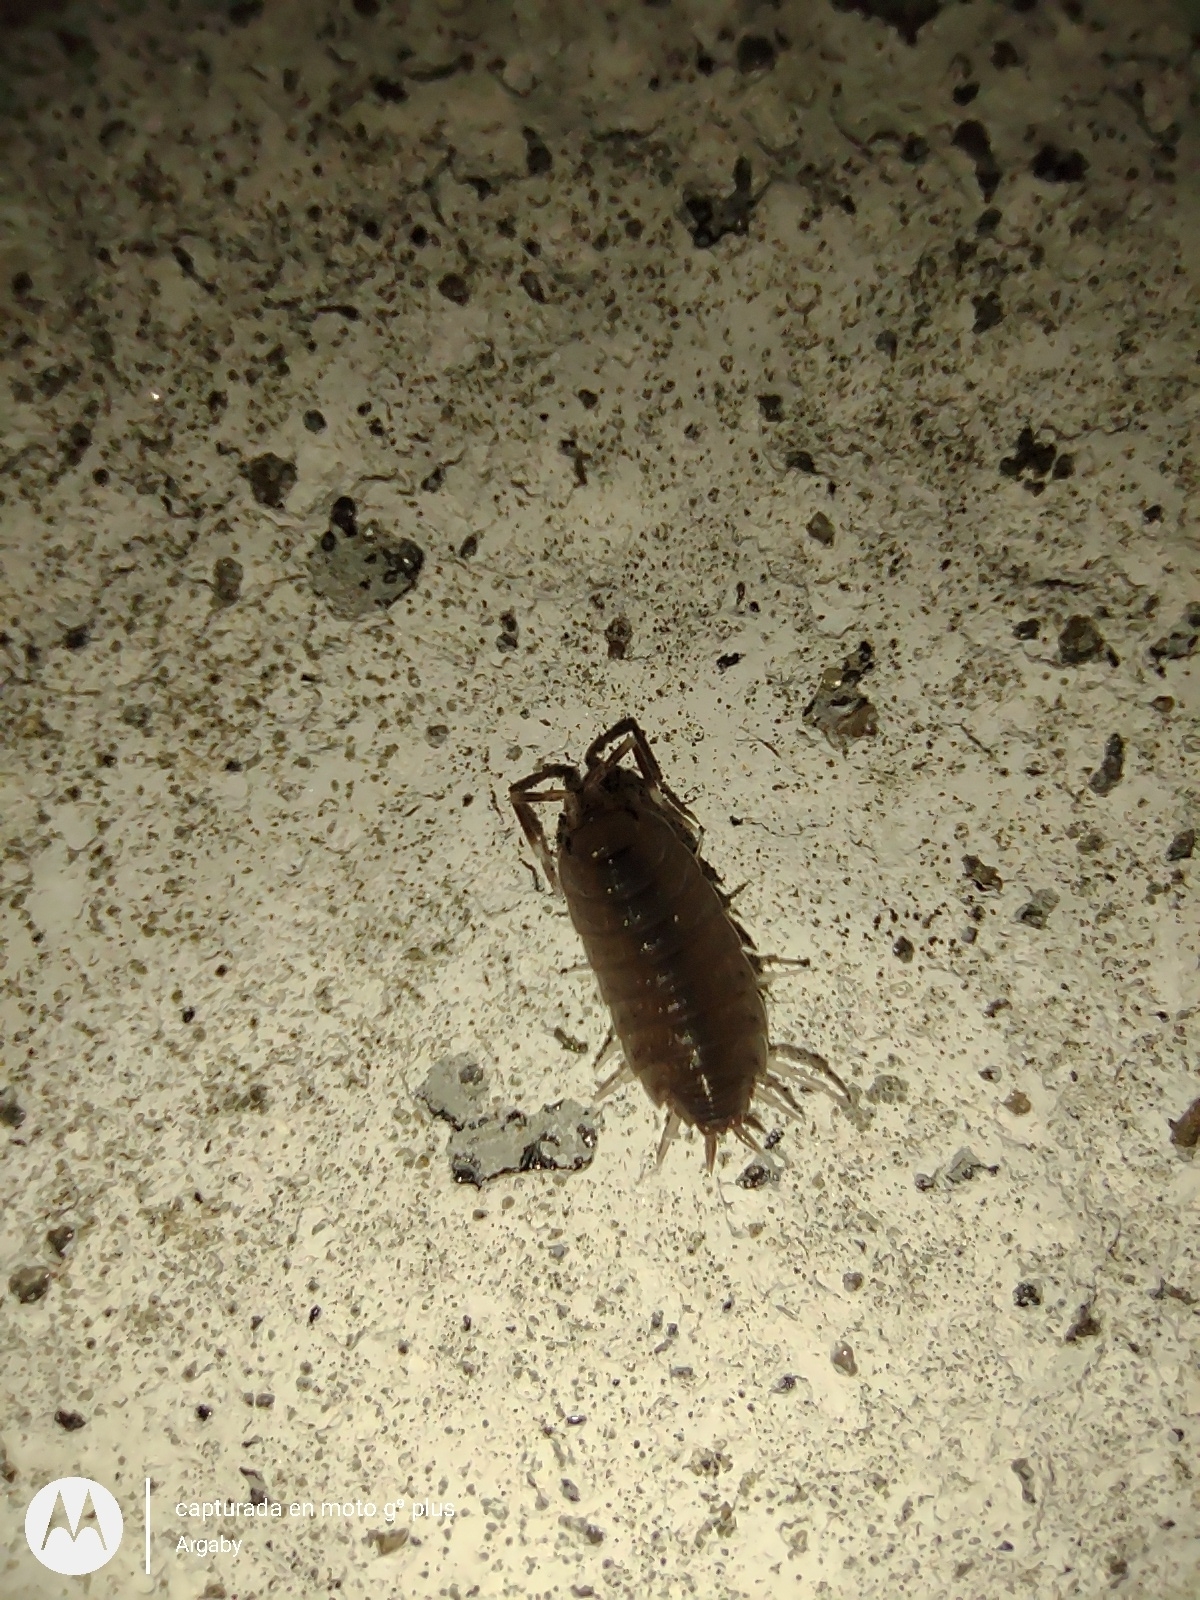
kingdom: Animalia
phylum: Arthropoda
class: Malacostraca
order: Isopoda
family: Porcellionidae
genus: Porcellionides
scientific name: Porcellionides pruinosus
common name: Plum woodlouse
